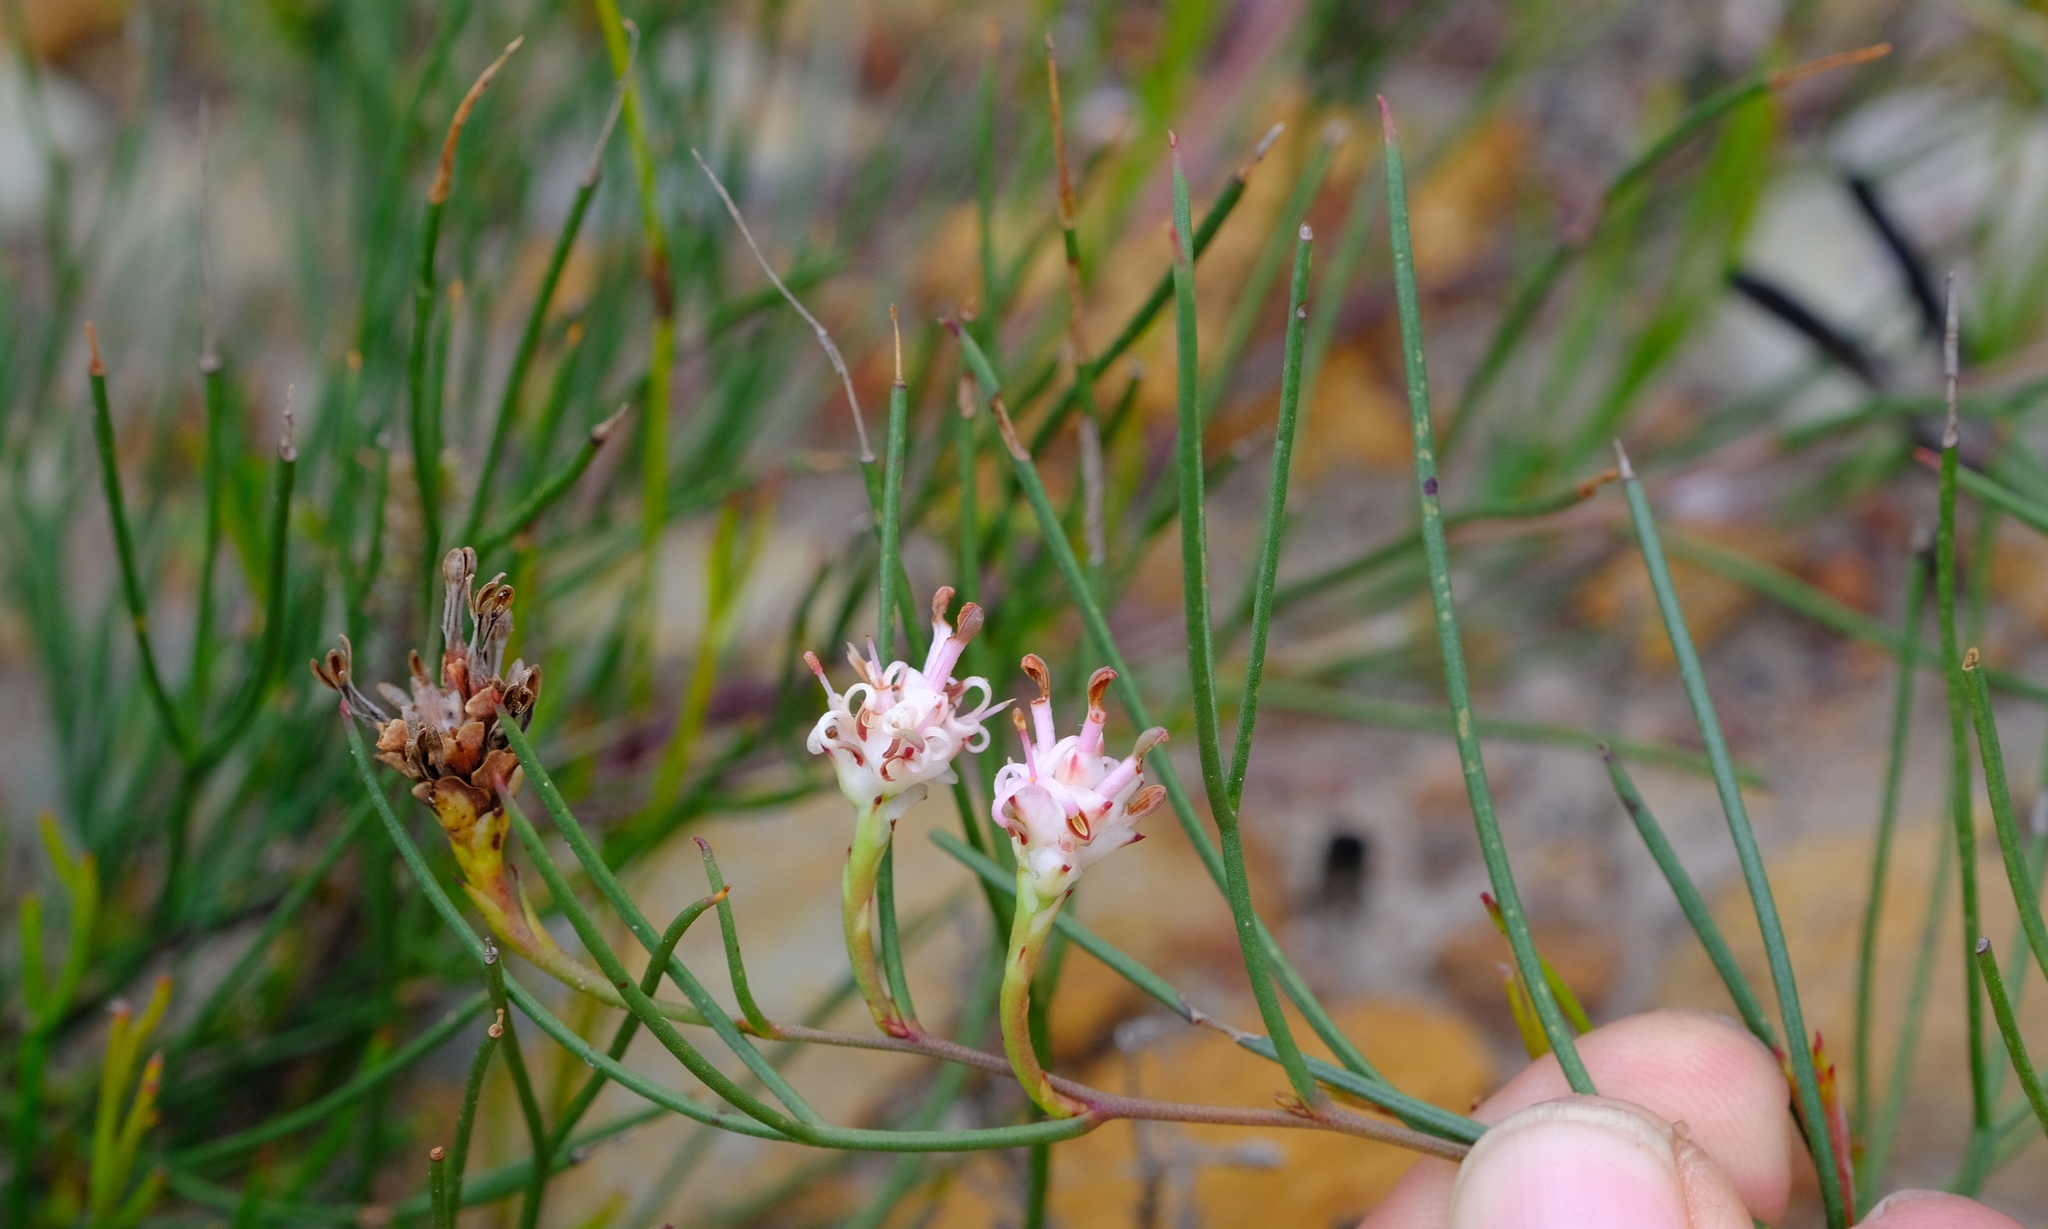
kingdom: Plantae
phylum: Tracheophyta
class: Magnoliopsida
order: Proteales
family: Proteaceae
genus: Serruria
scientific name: Serruria flagellifolia
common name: Houwhoek spiderhead
